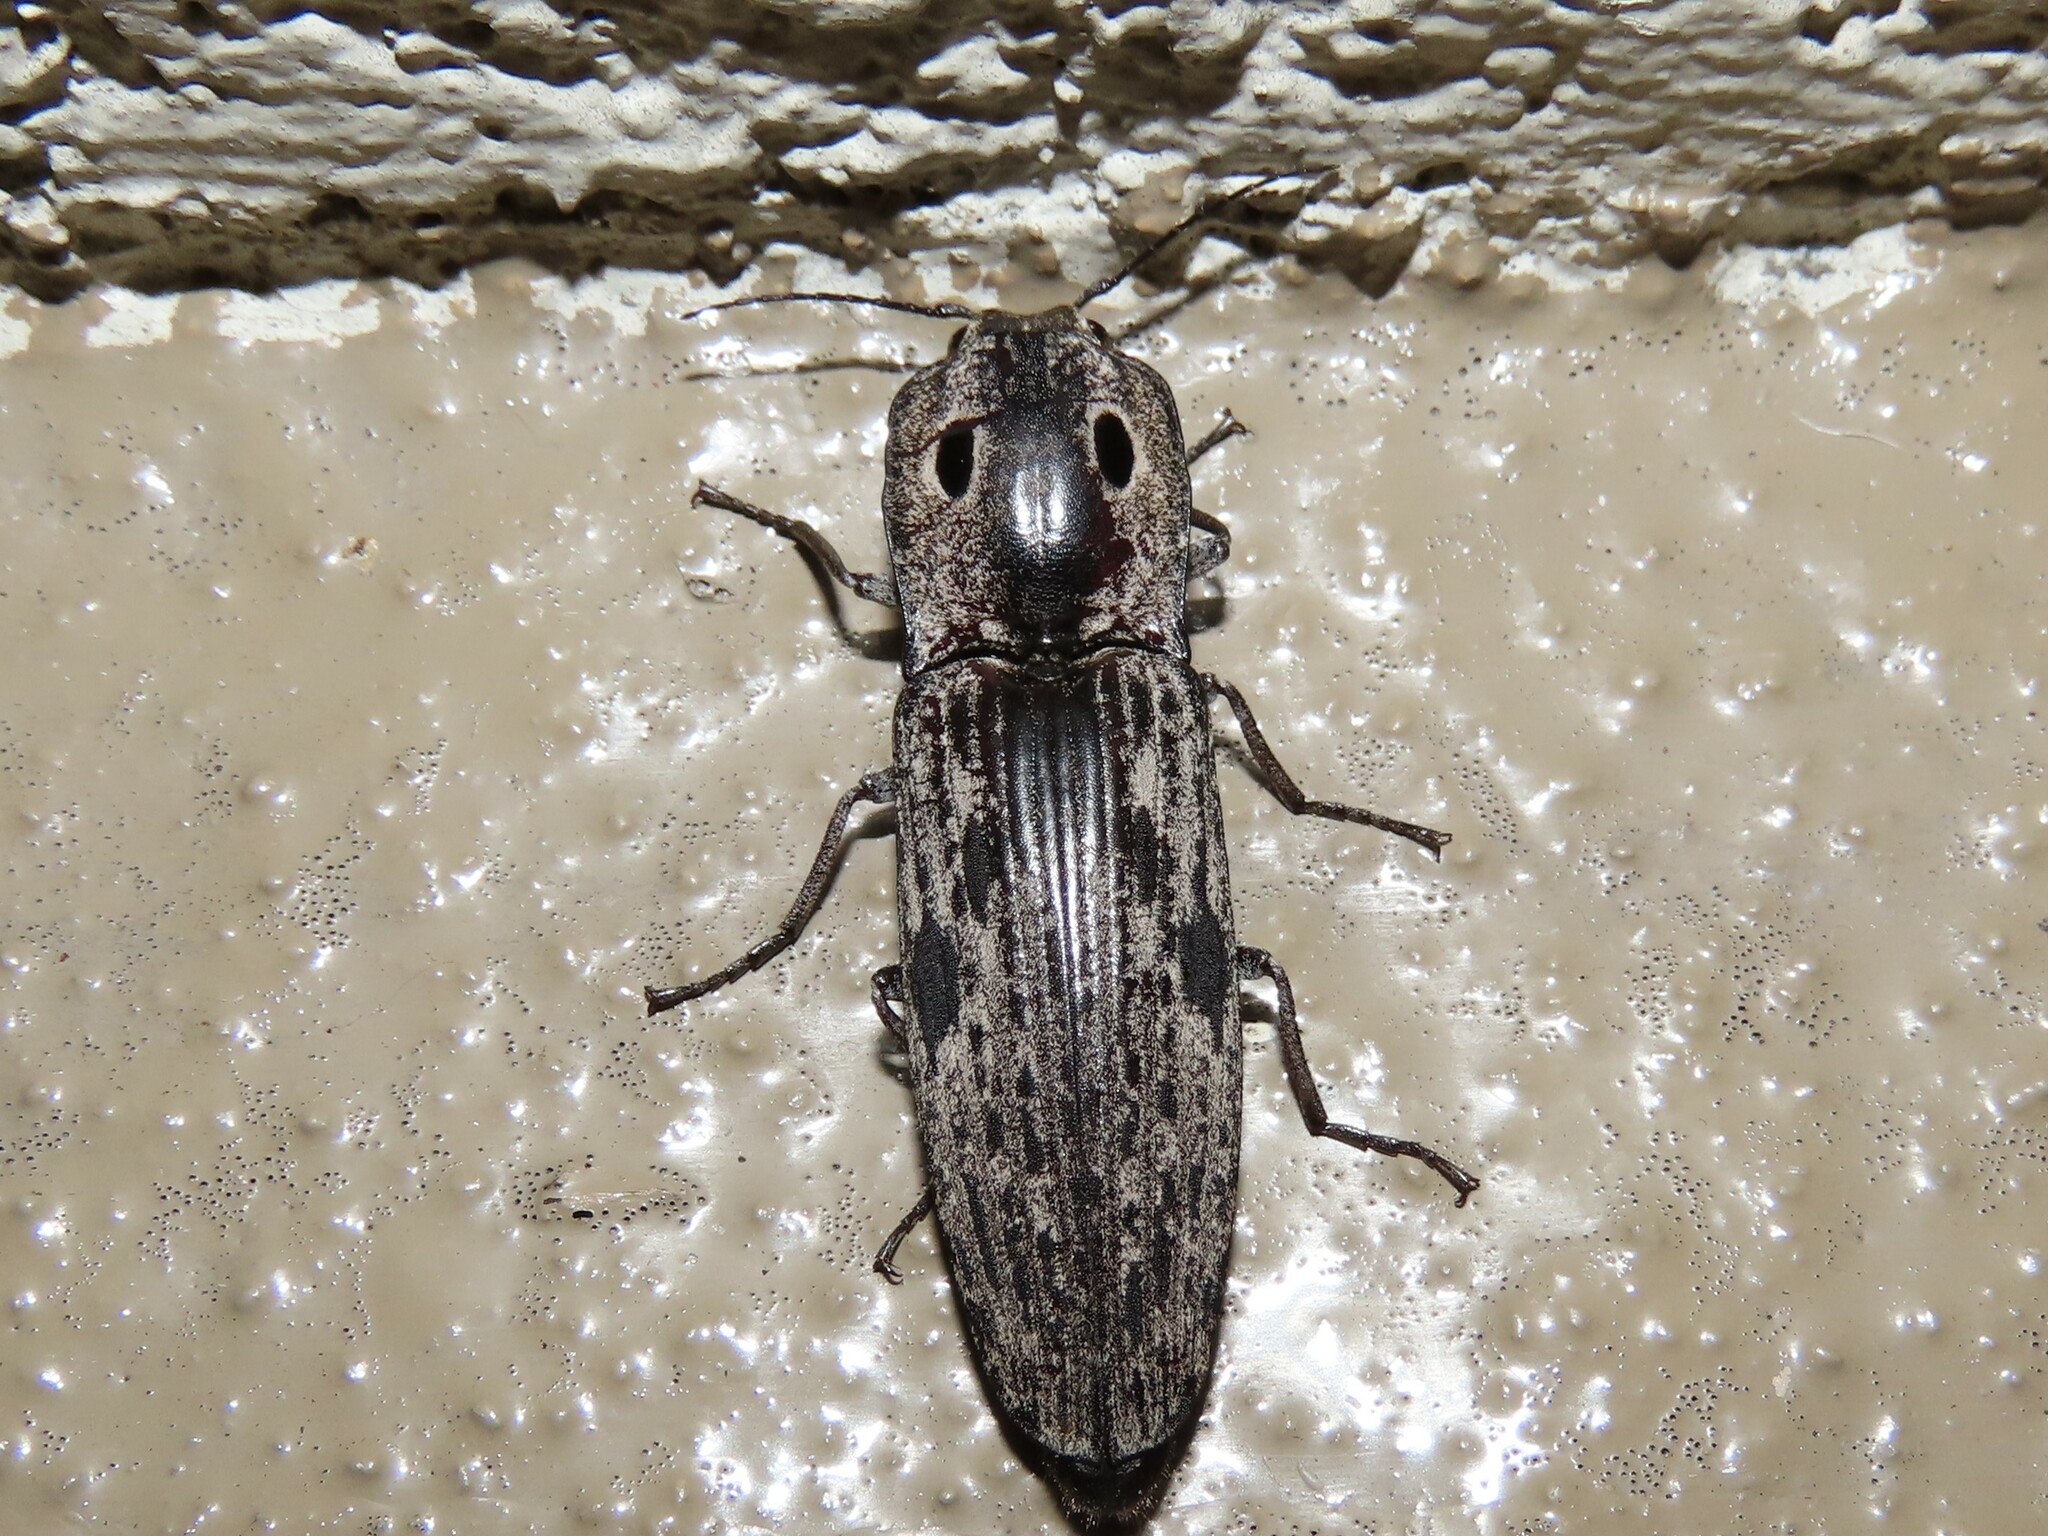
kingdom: Animalia
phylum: Arthropoda
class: Insecta
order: Coleoptera
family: Elateridae
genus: Alaus
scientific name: Alaus myops
